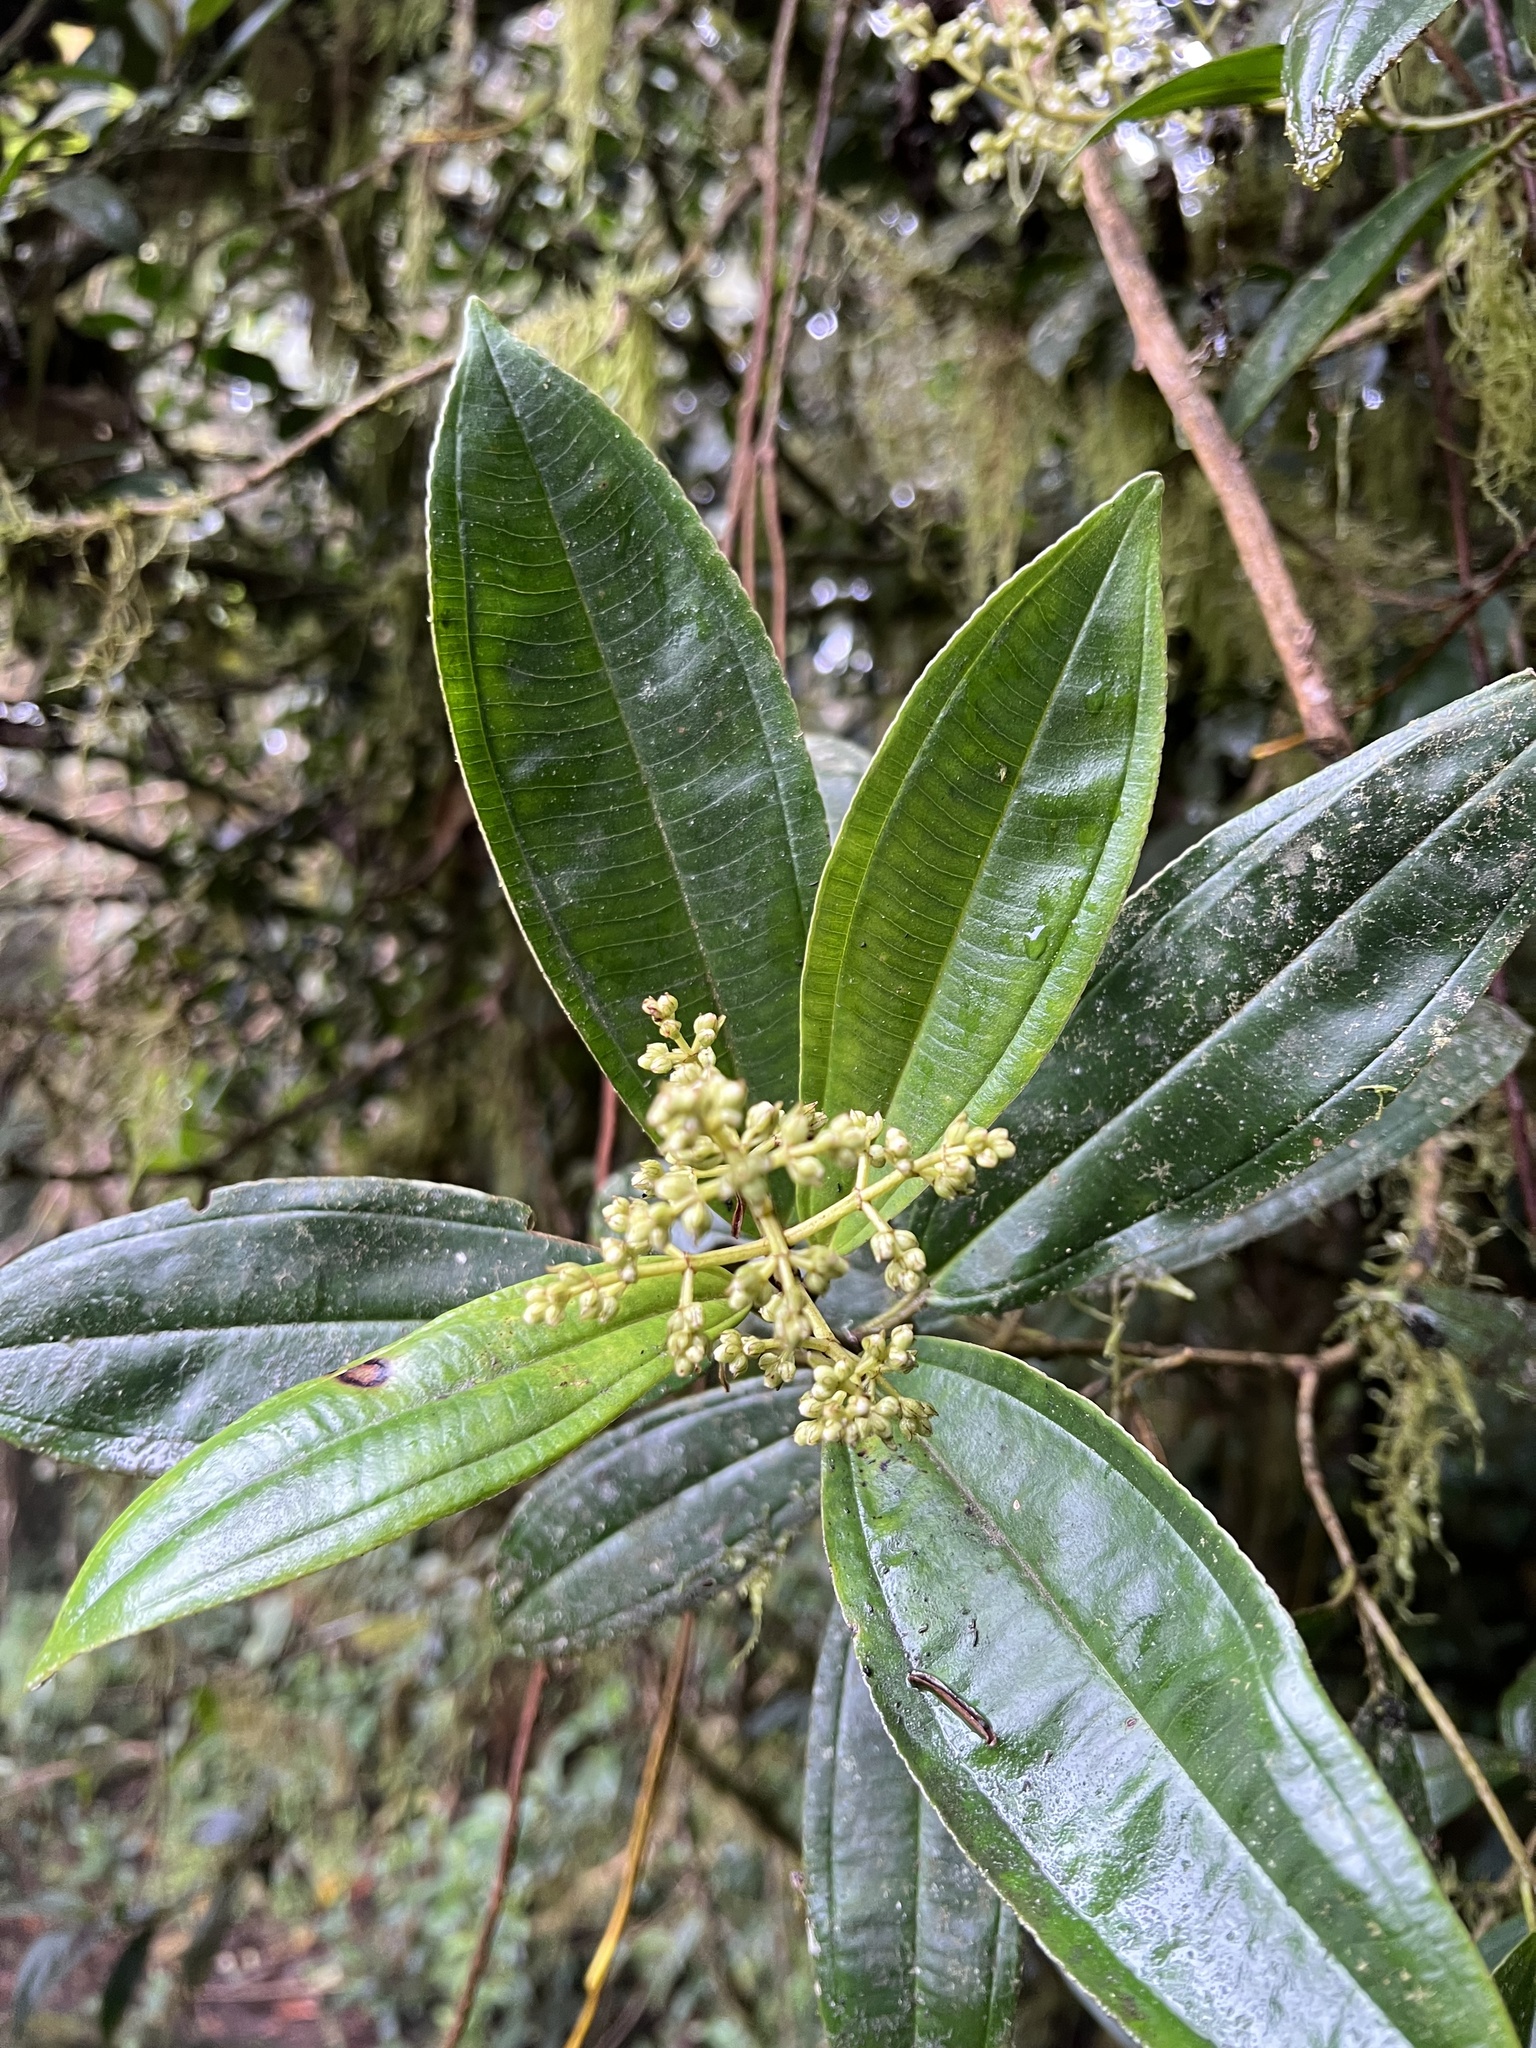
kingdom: Plantae
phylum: Tracheophyta
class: Magnoliopsida
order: Myrtales
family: Melastomataceae
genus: Miconia
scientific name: Miconia cremophylla
